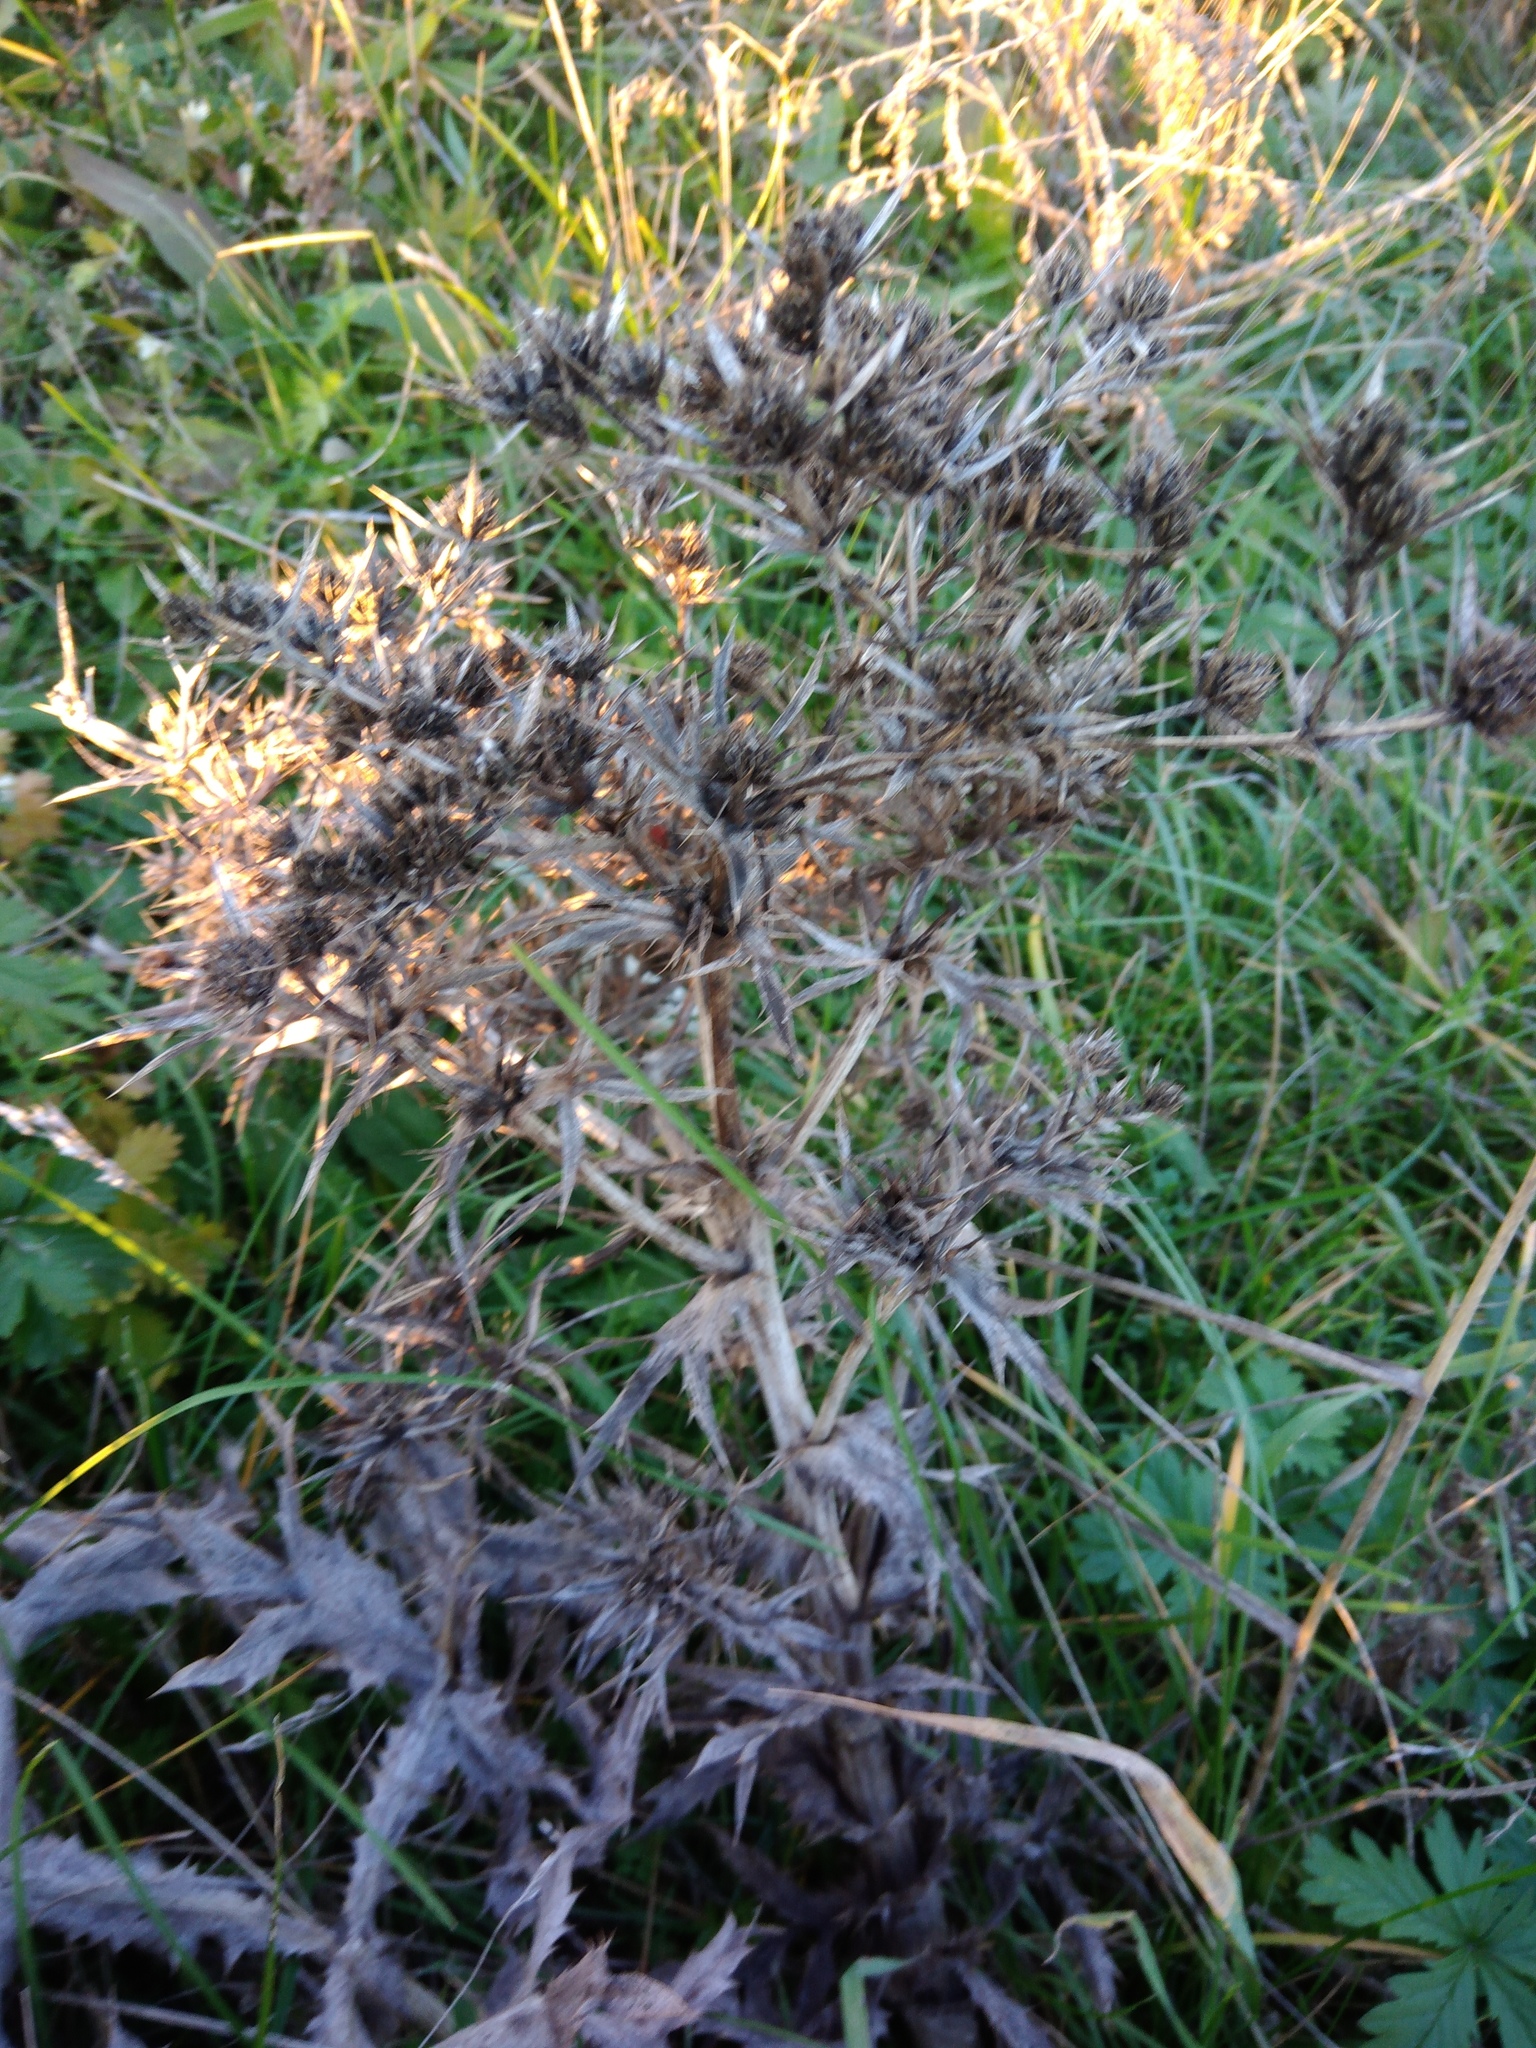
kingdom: Plantae
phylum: Tracheophyta
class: Magnoliopsida
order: Apiales
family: Apiaceae
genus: Eryngium
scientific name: Eryngium campestre
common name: Field eryngo
